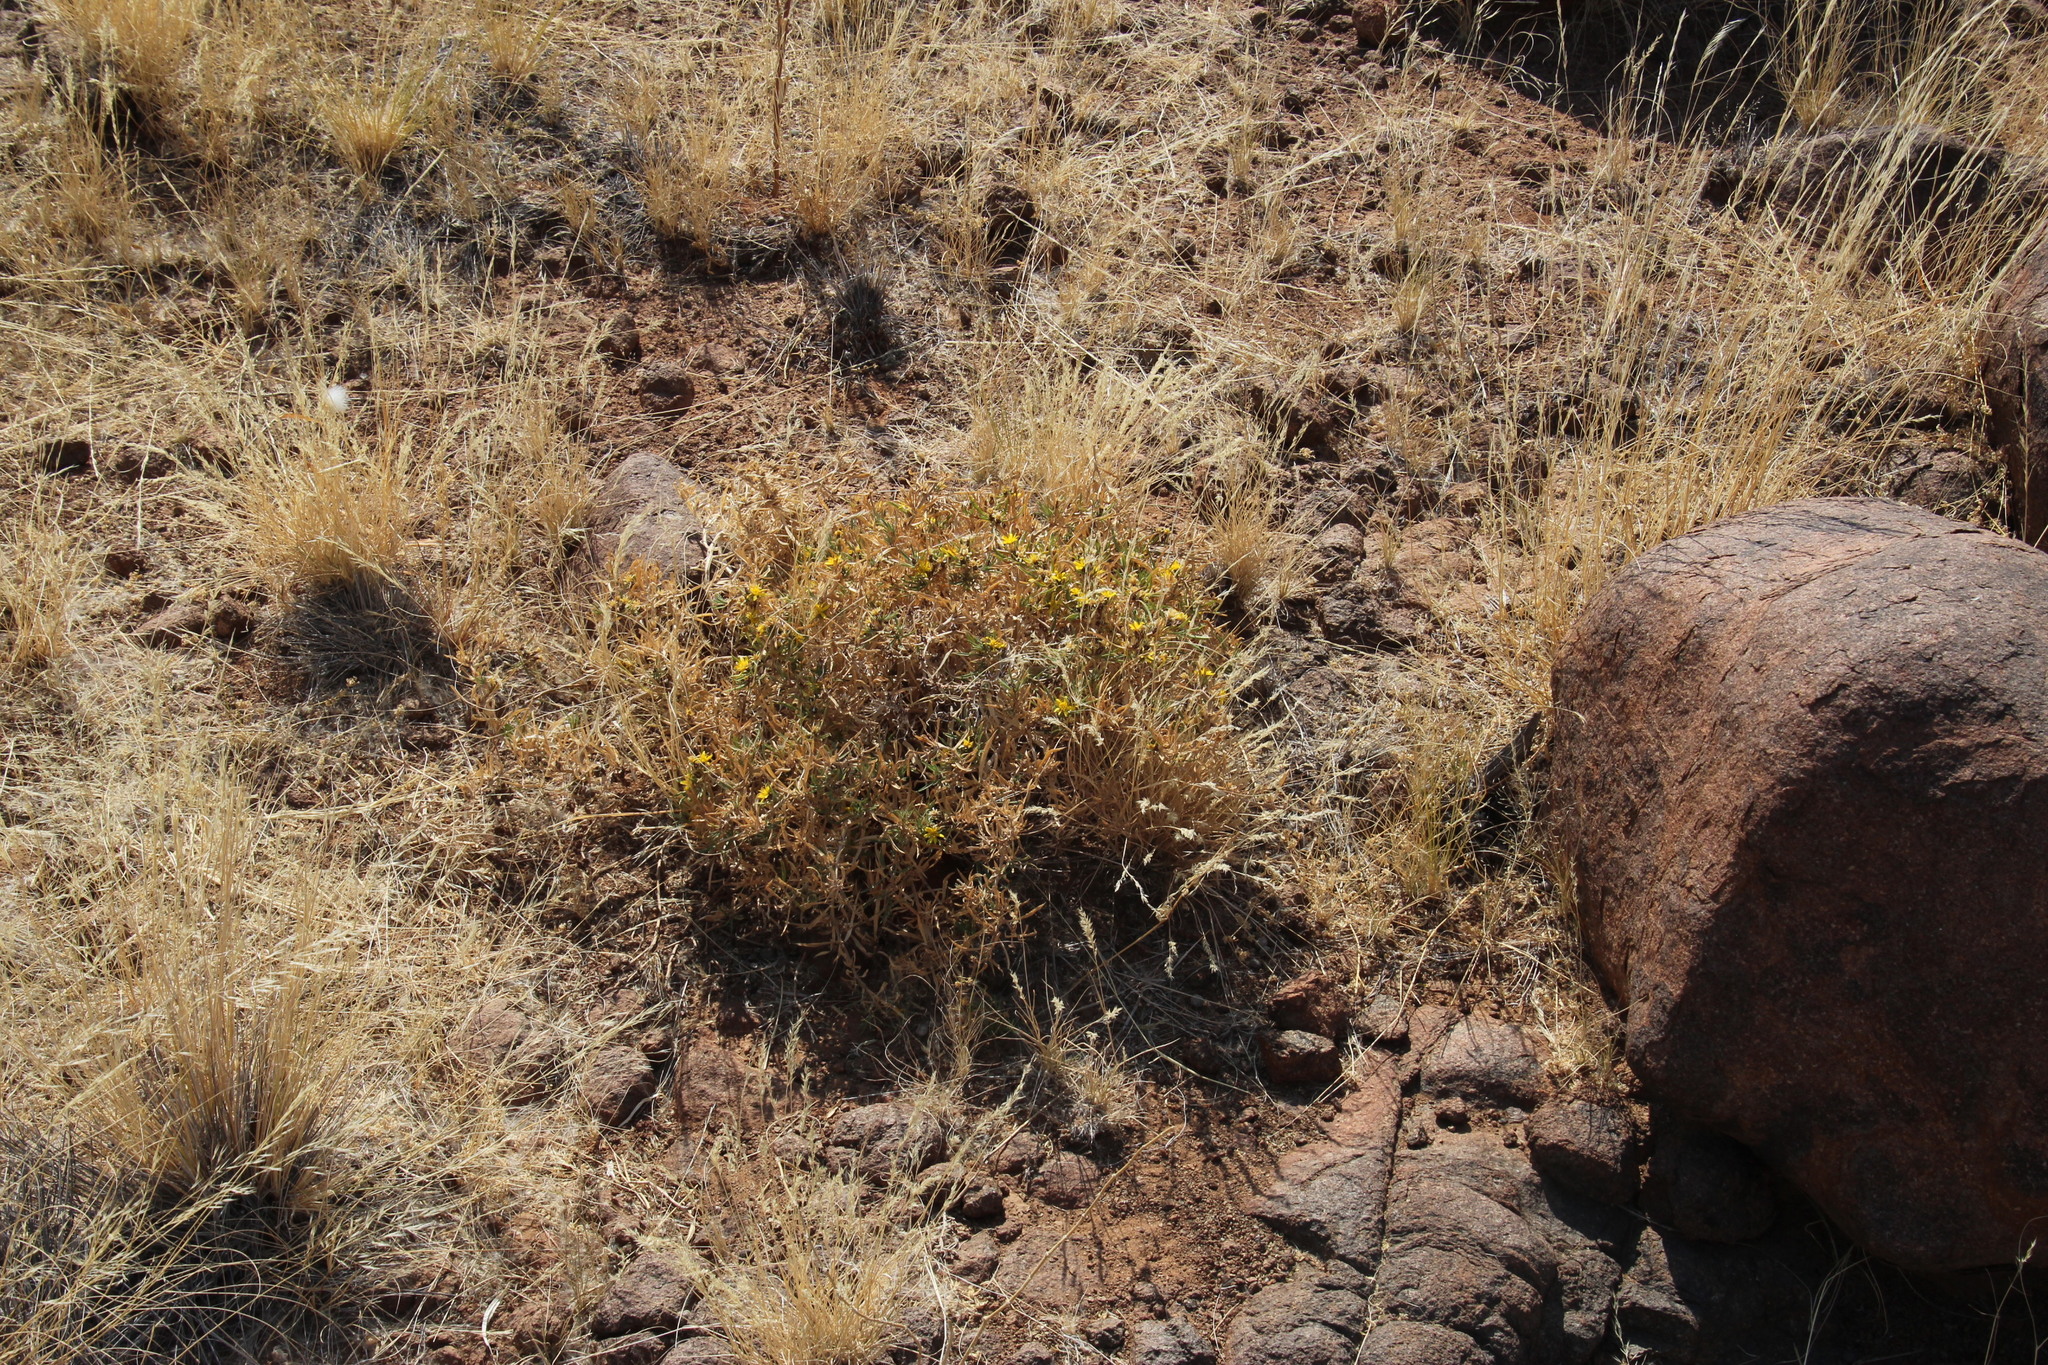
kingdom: Plantae
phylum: Tracheophyta
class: Magnoliopsida
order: Asterales
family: Asteraceae
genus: Geigeria
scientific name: Geigeria pectidea
